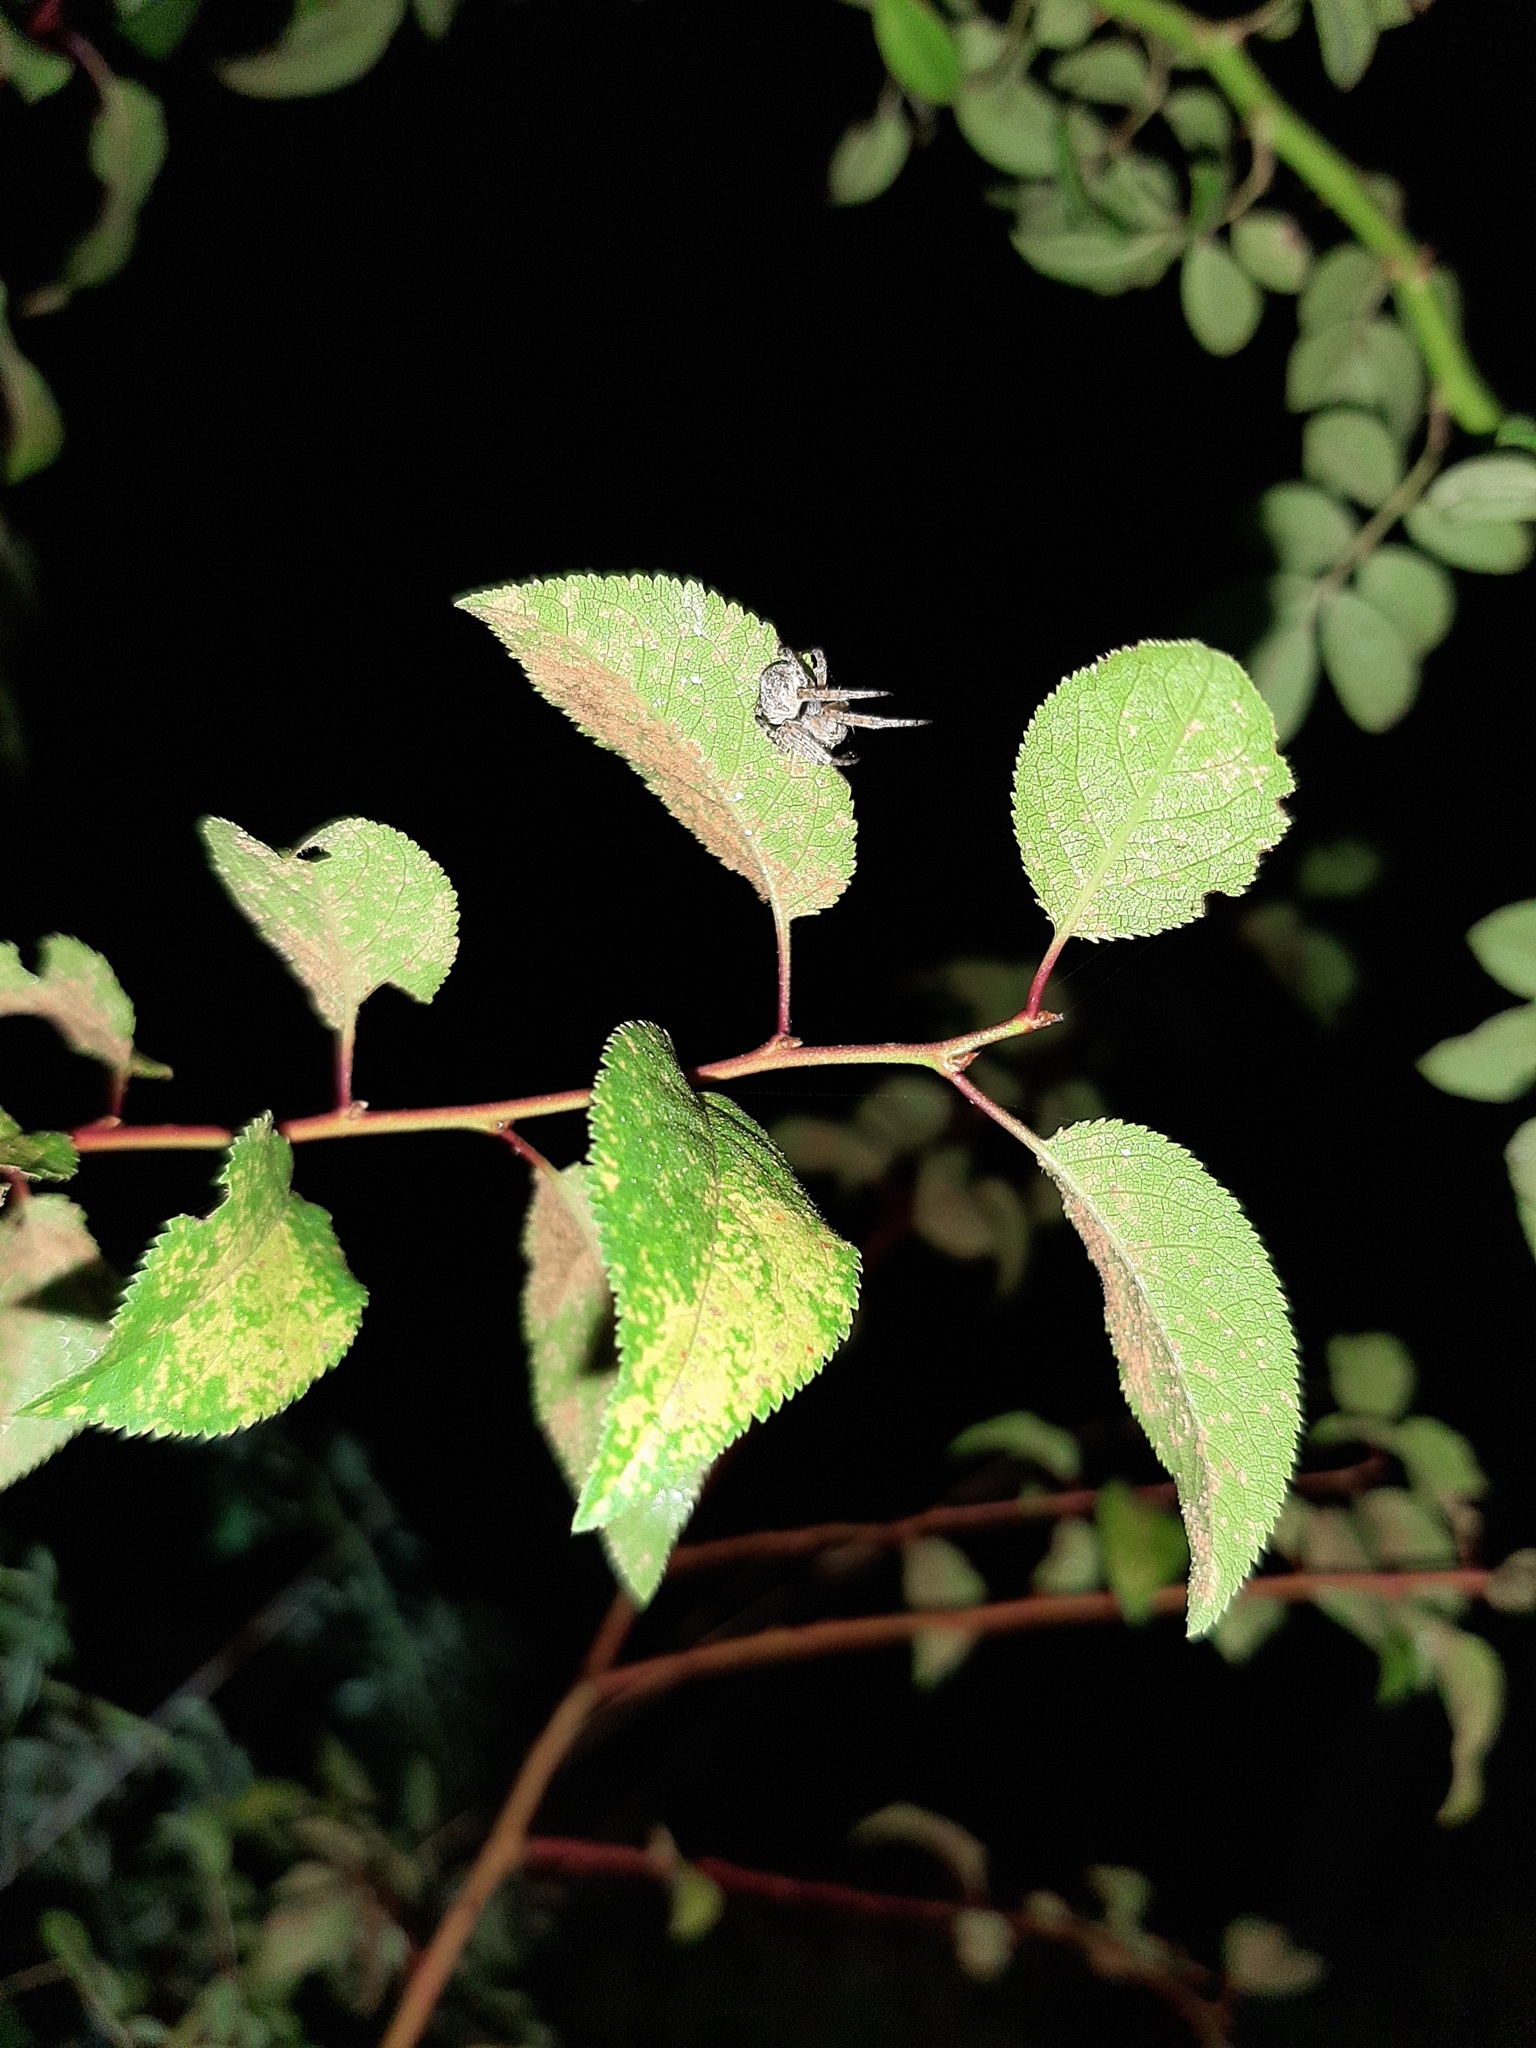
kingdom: Animalia
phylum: Arthropoda
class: Arachnida
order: Araneae
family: Araneidae
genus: Agalenatea
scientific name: Agalenatea redii
